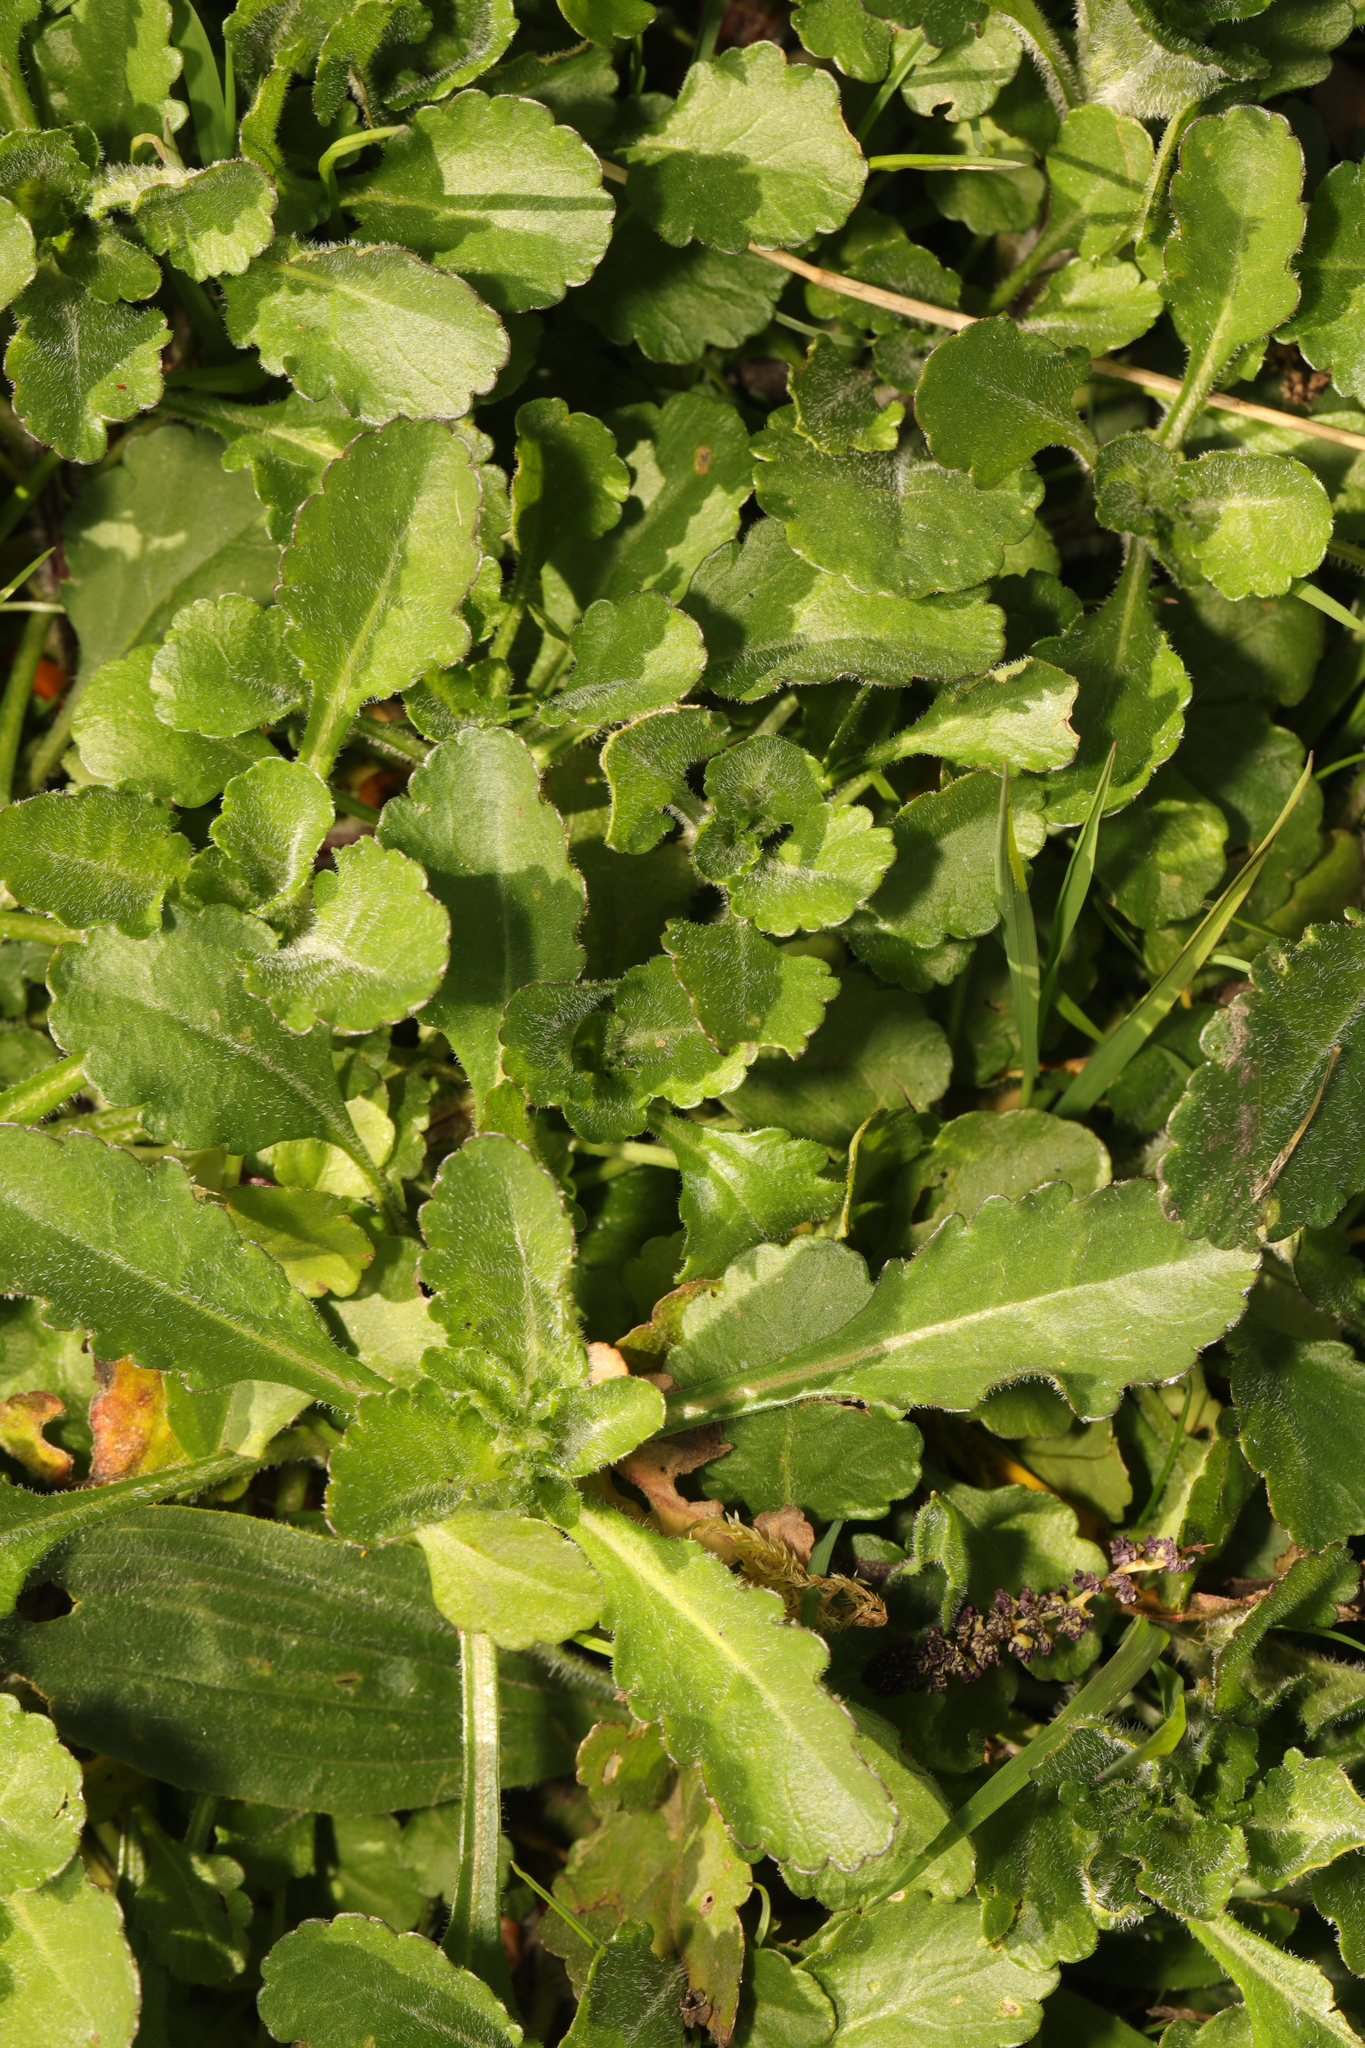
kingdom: Plantae
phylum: Tracheophyta
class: Magnoliopsida
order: Asterales
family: Asteraceae
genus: Leucanthemum
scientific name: Leucanthemum vulgare
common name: Oxeye daisy
